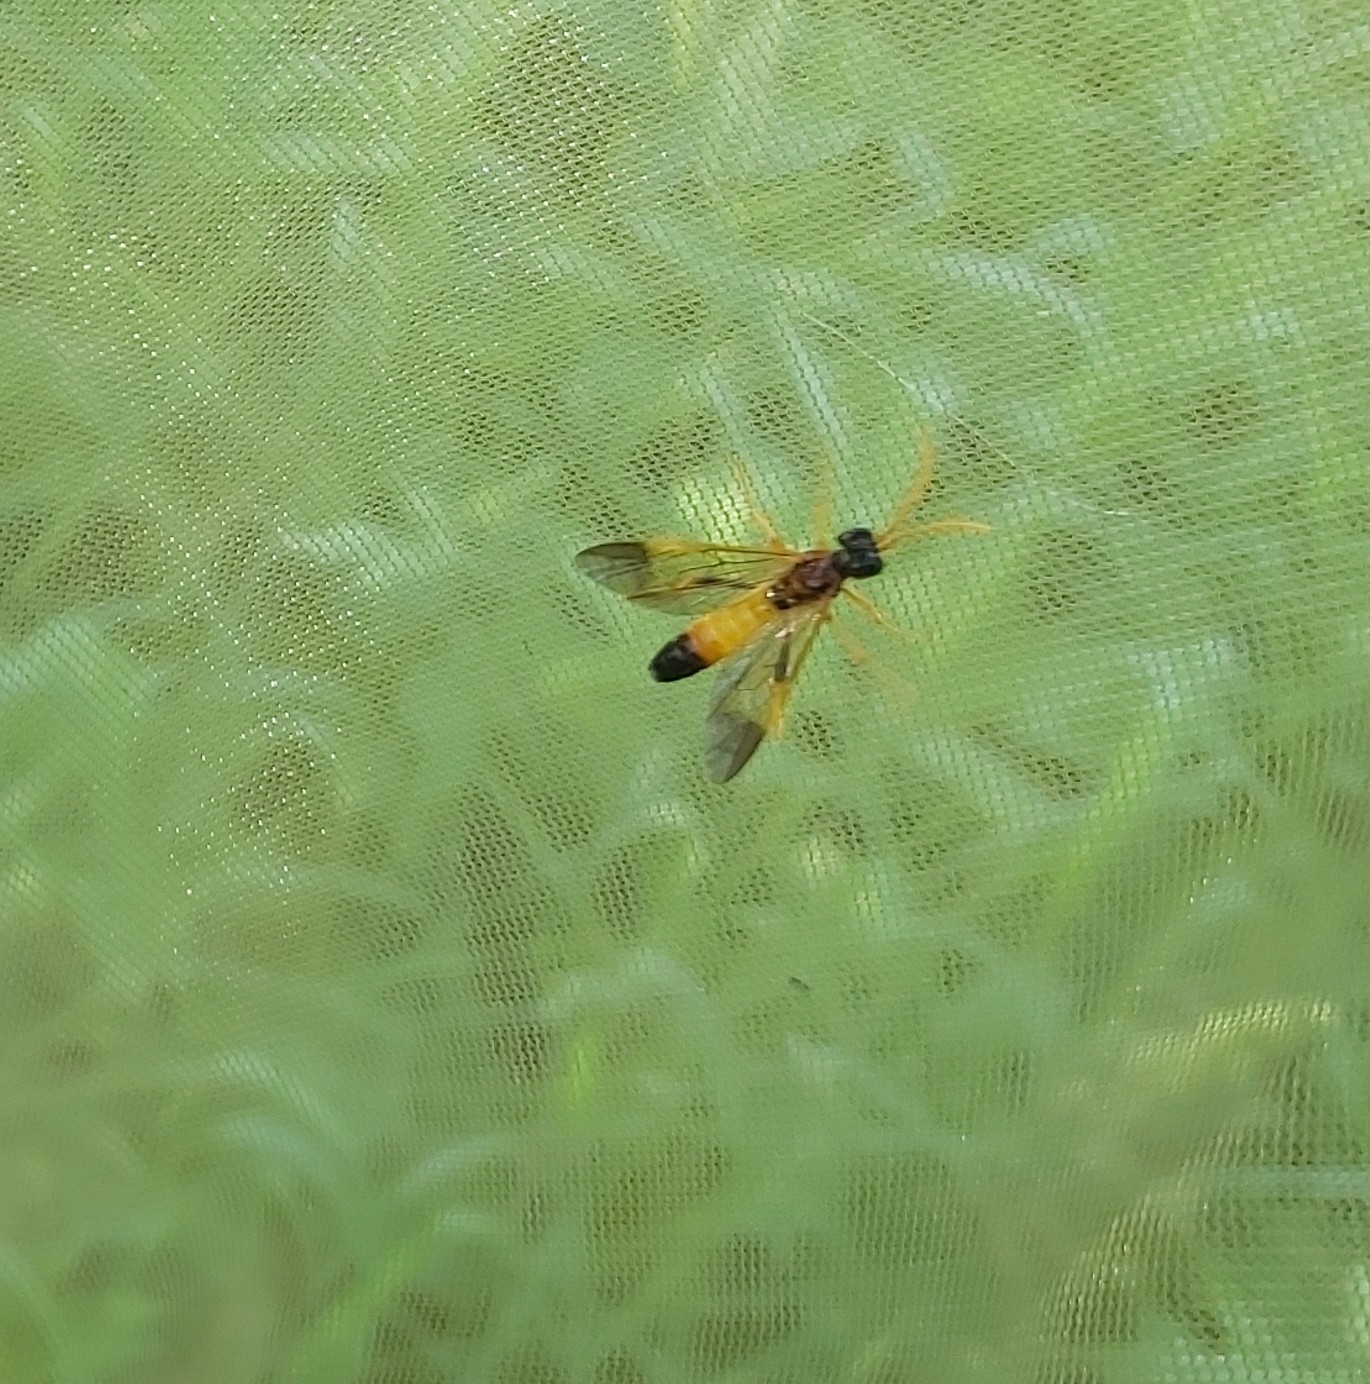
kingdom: Animalia
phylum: Arthropoda
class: Insecta
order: Hymenoptera
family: Tenthredinidae
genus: Tenthredo
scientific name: Tenthredo campestris
